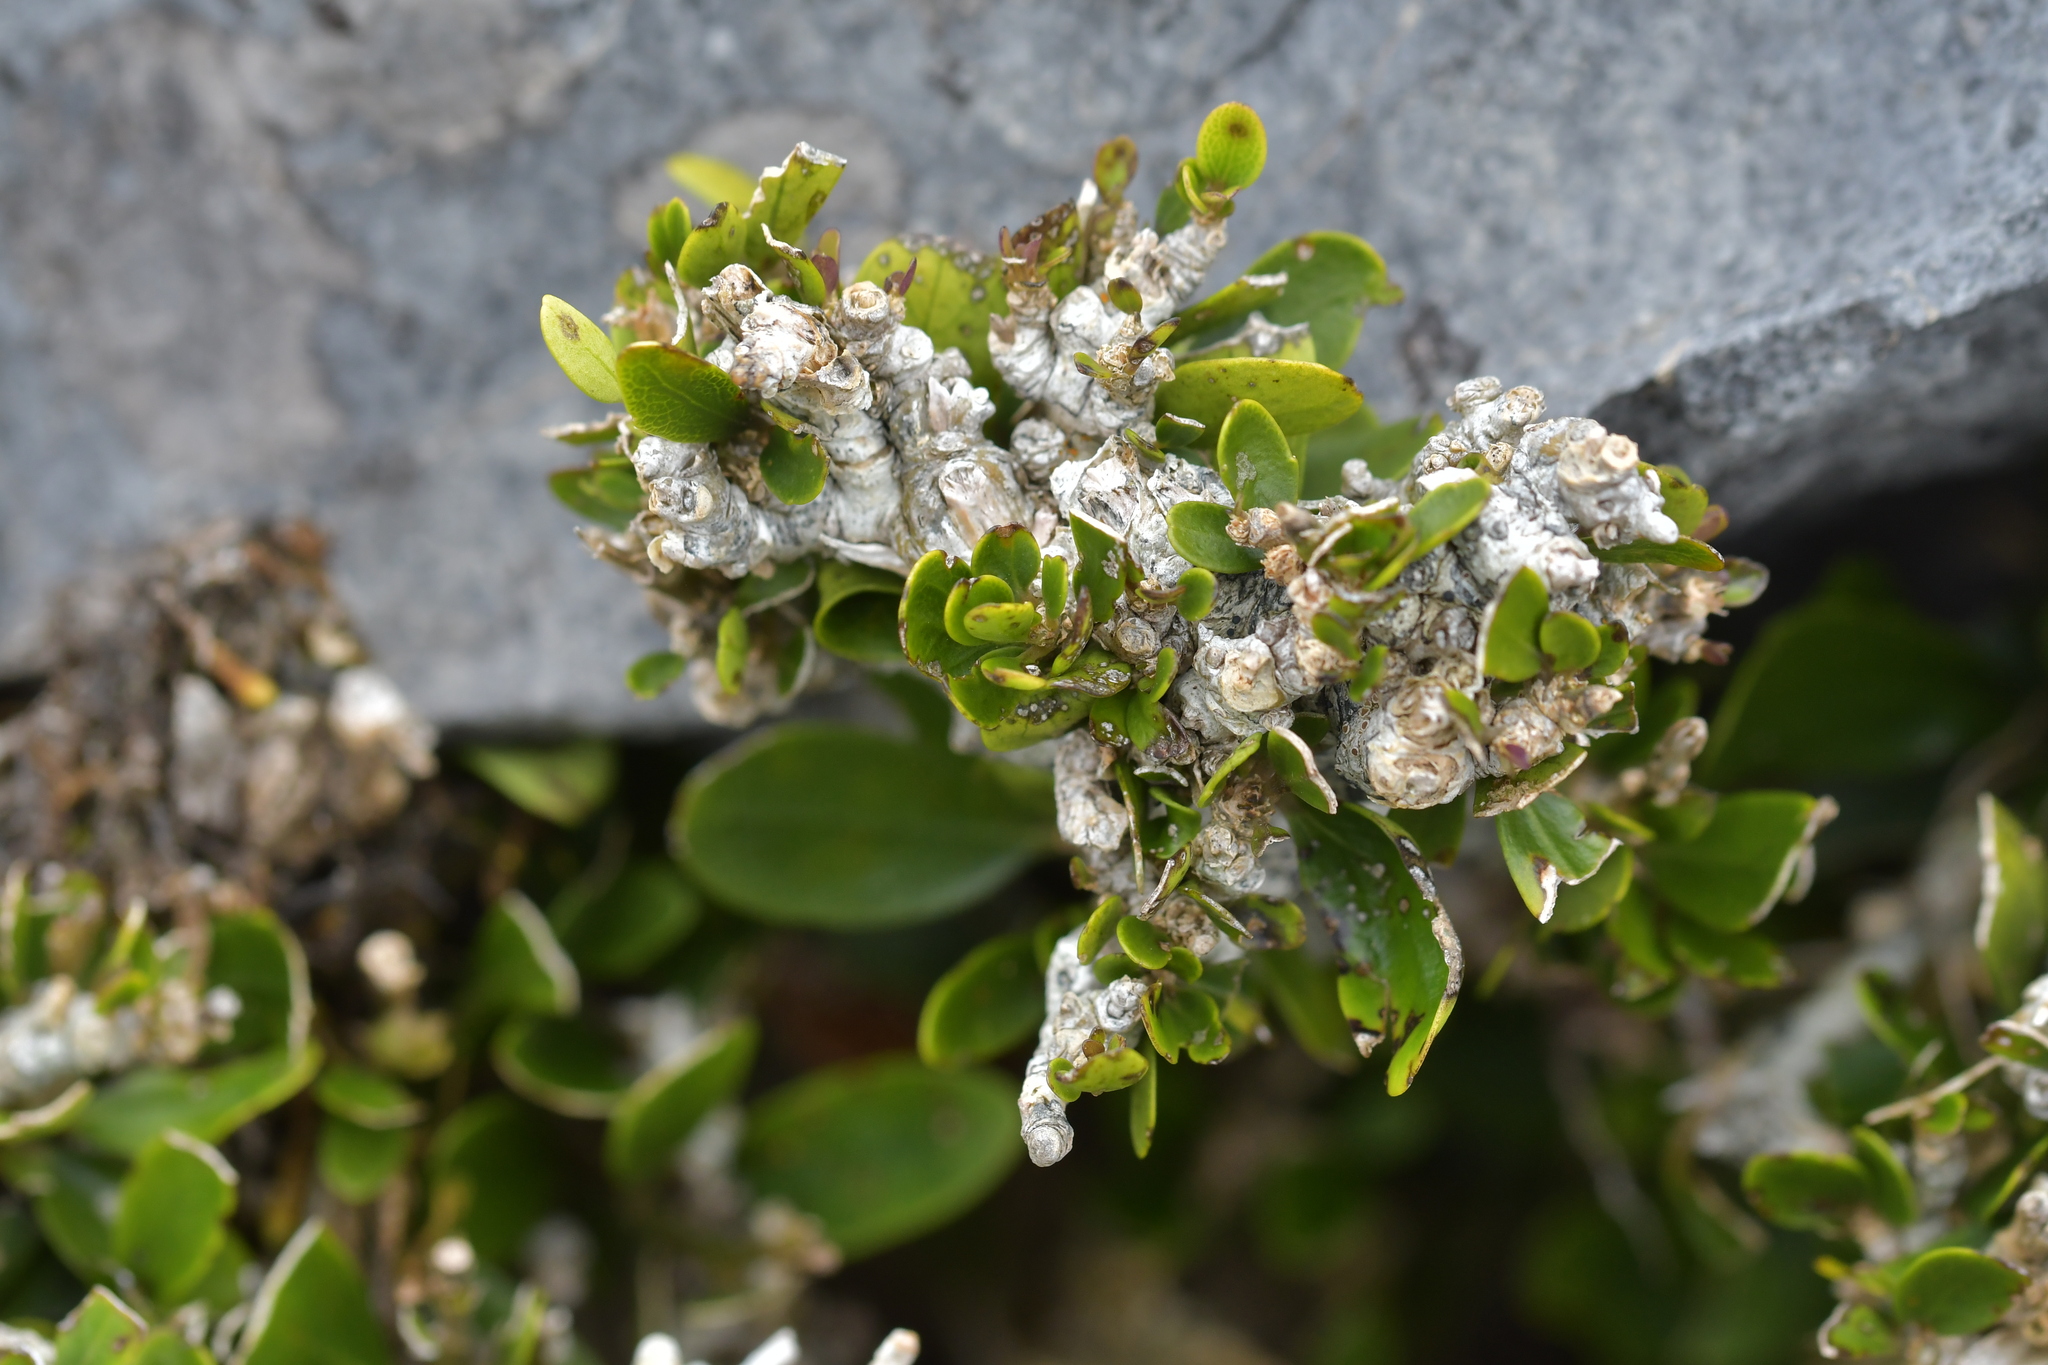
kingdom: Plantae
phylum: Tracheophyta
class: Magnoliopsida
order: Malpighiales
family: Violaceae
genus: Melicytus
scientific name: Melicytus obovatus
